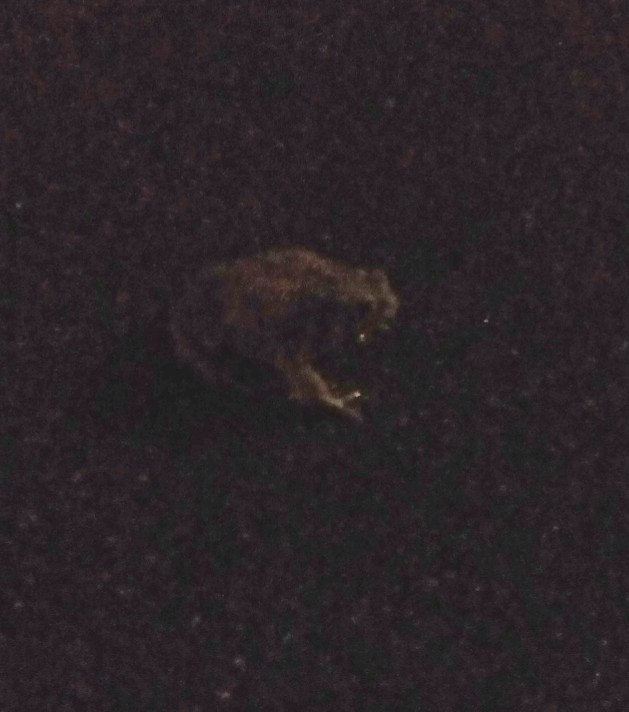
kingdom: Animalia
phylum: Chordata
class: Amphibia
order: Anura
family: Bufonidae
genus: Bufo
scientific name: Bufo bufo
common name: Common toad
